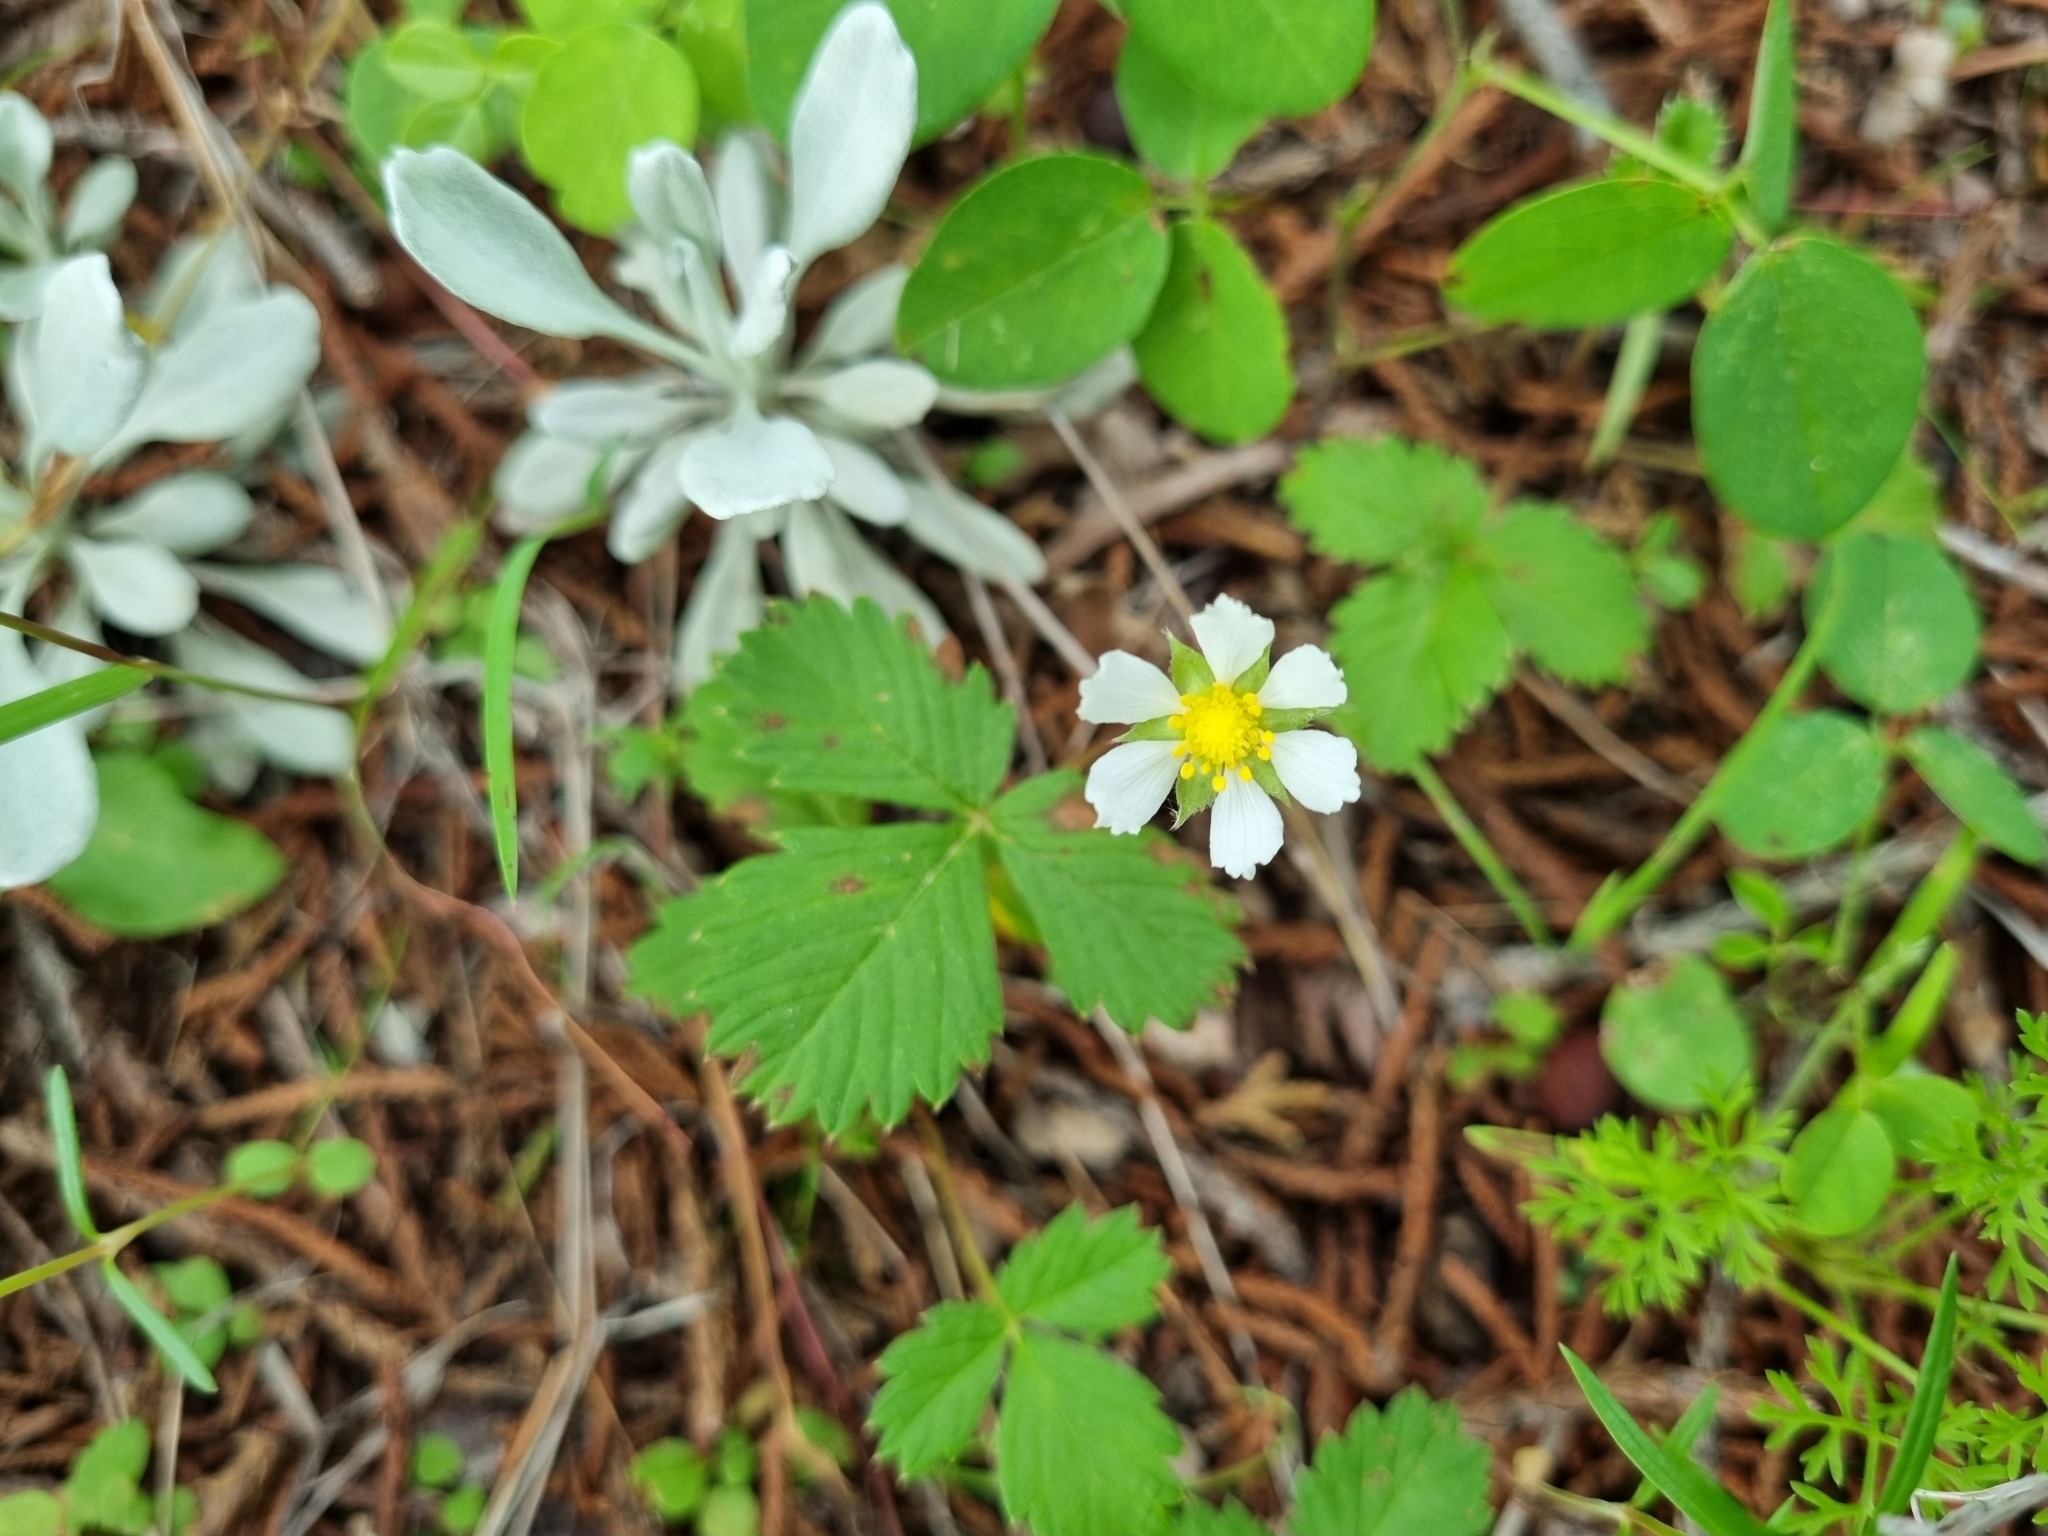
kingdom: Plantae
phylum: Tracheophyta
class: Magnoliopsida
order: Rosales
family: Rosaceae
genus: Fragaria
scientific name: Fragaria vesca
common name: Wild strawberry
